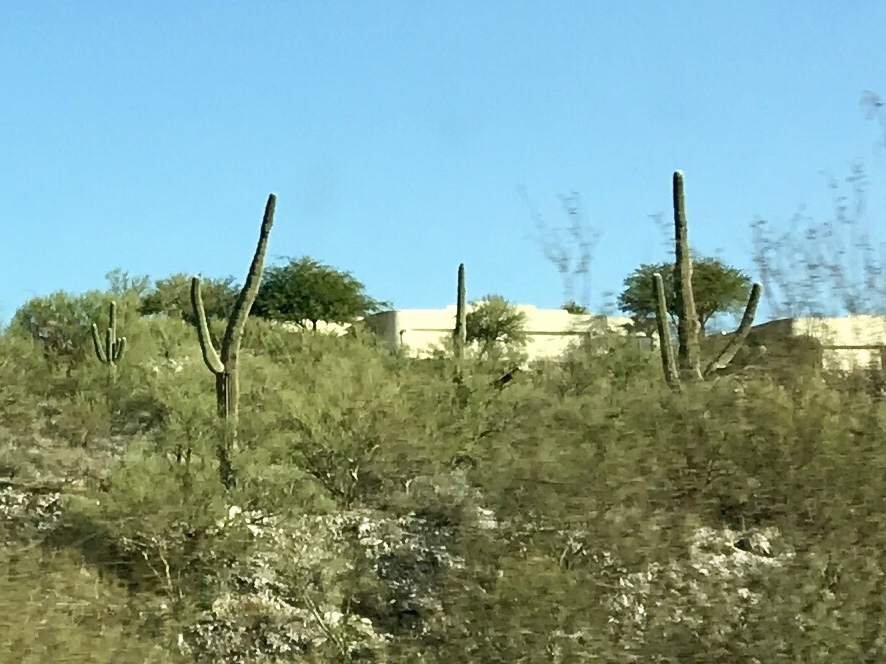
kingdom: Plantae
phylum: Tracheophyta
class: Magnoliopsida
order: Caryophyllales
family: Cactaceae
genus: Carnegiea
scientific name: Carnegiea gigantea
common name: Saguaro
